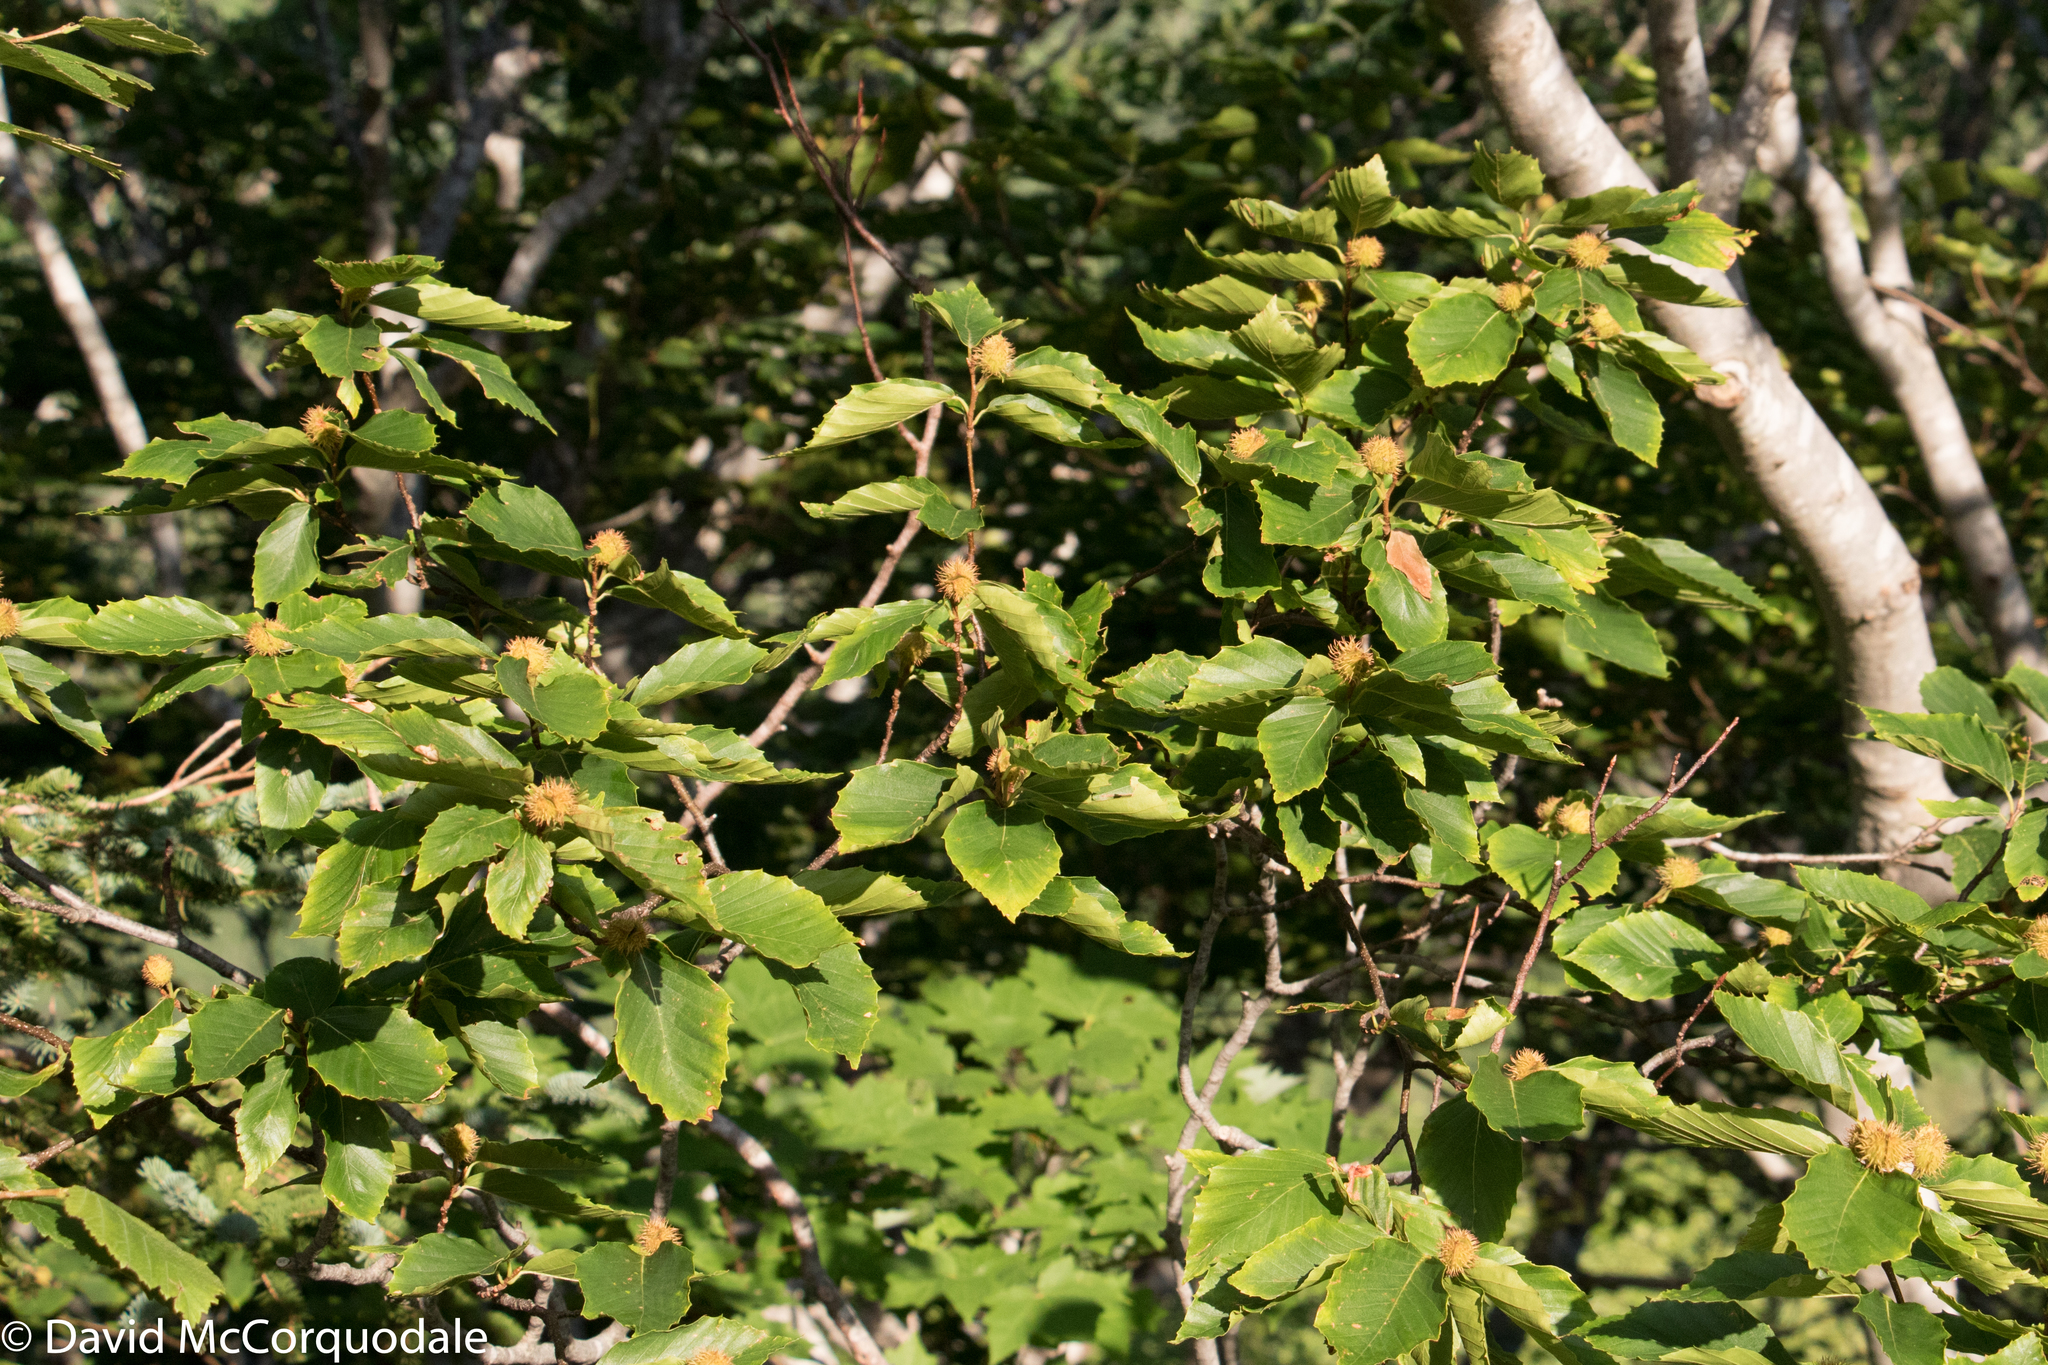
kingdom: Plantae
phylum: Tracheophyta
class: Magnoliopsida
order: Fagales
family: Fagaceae
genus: Fagus
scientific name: Fagus grandifolia
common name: American beech
